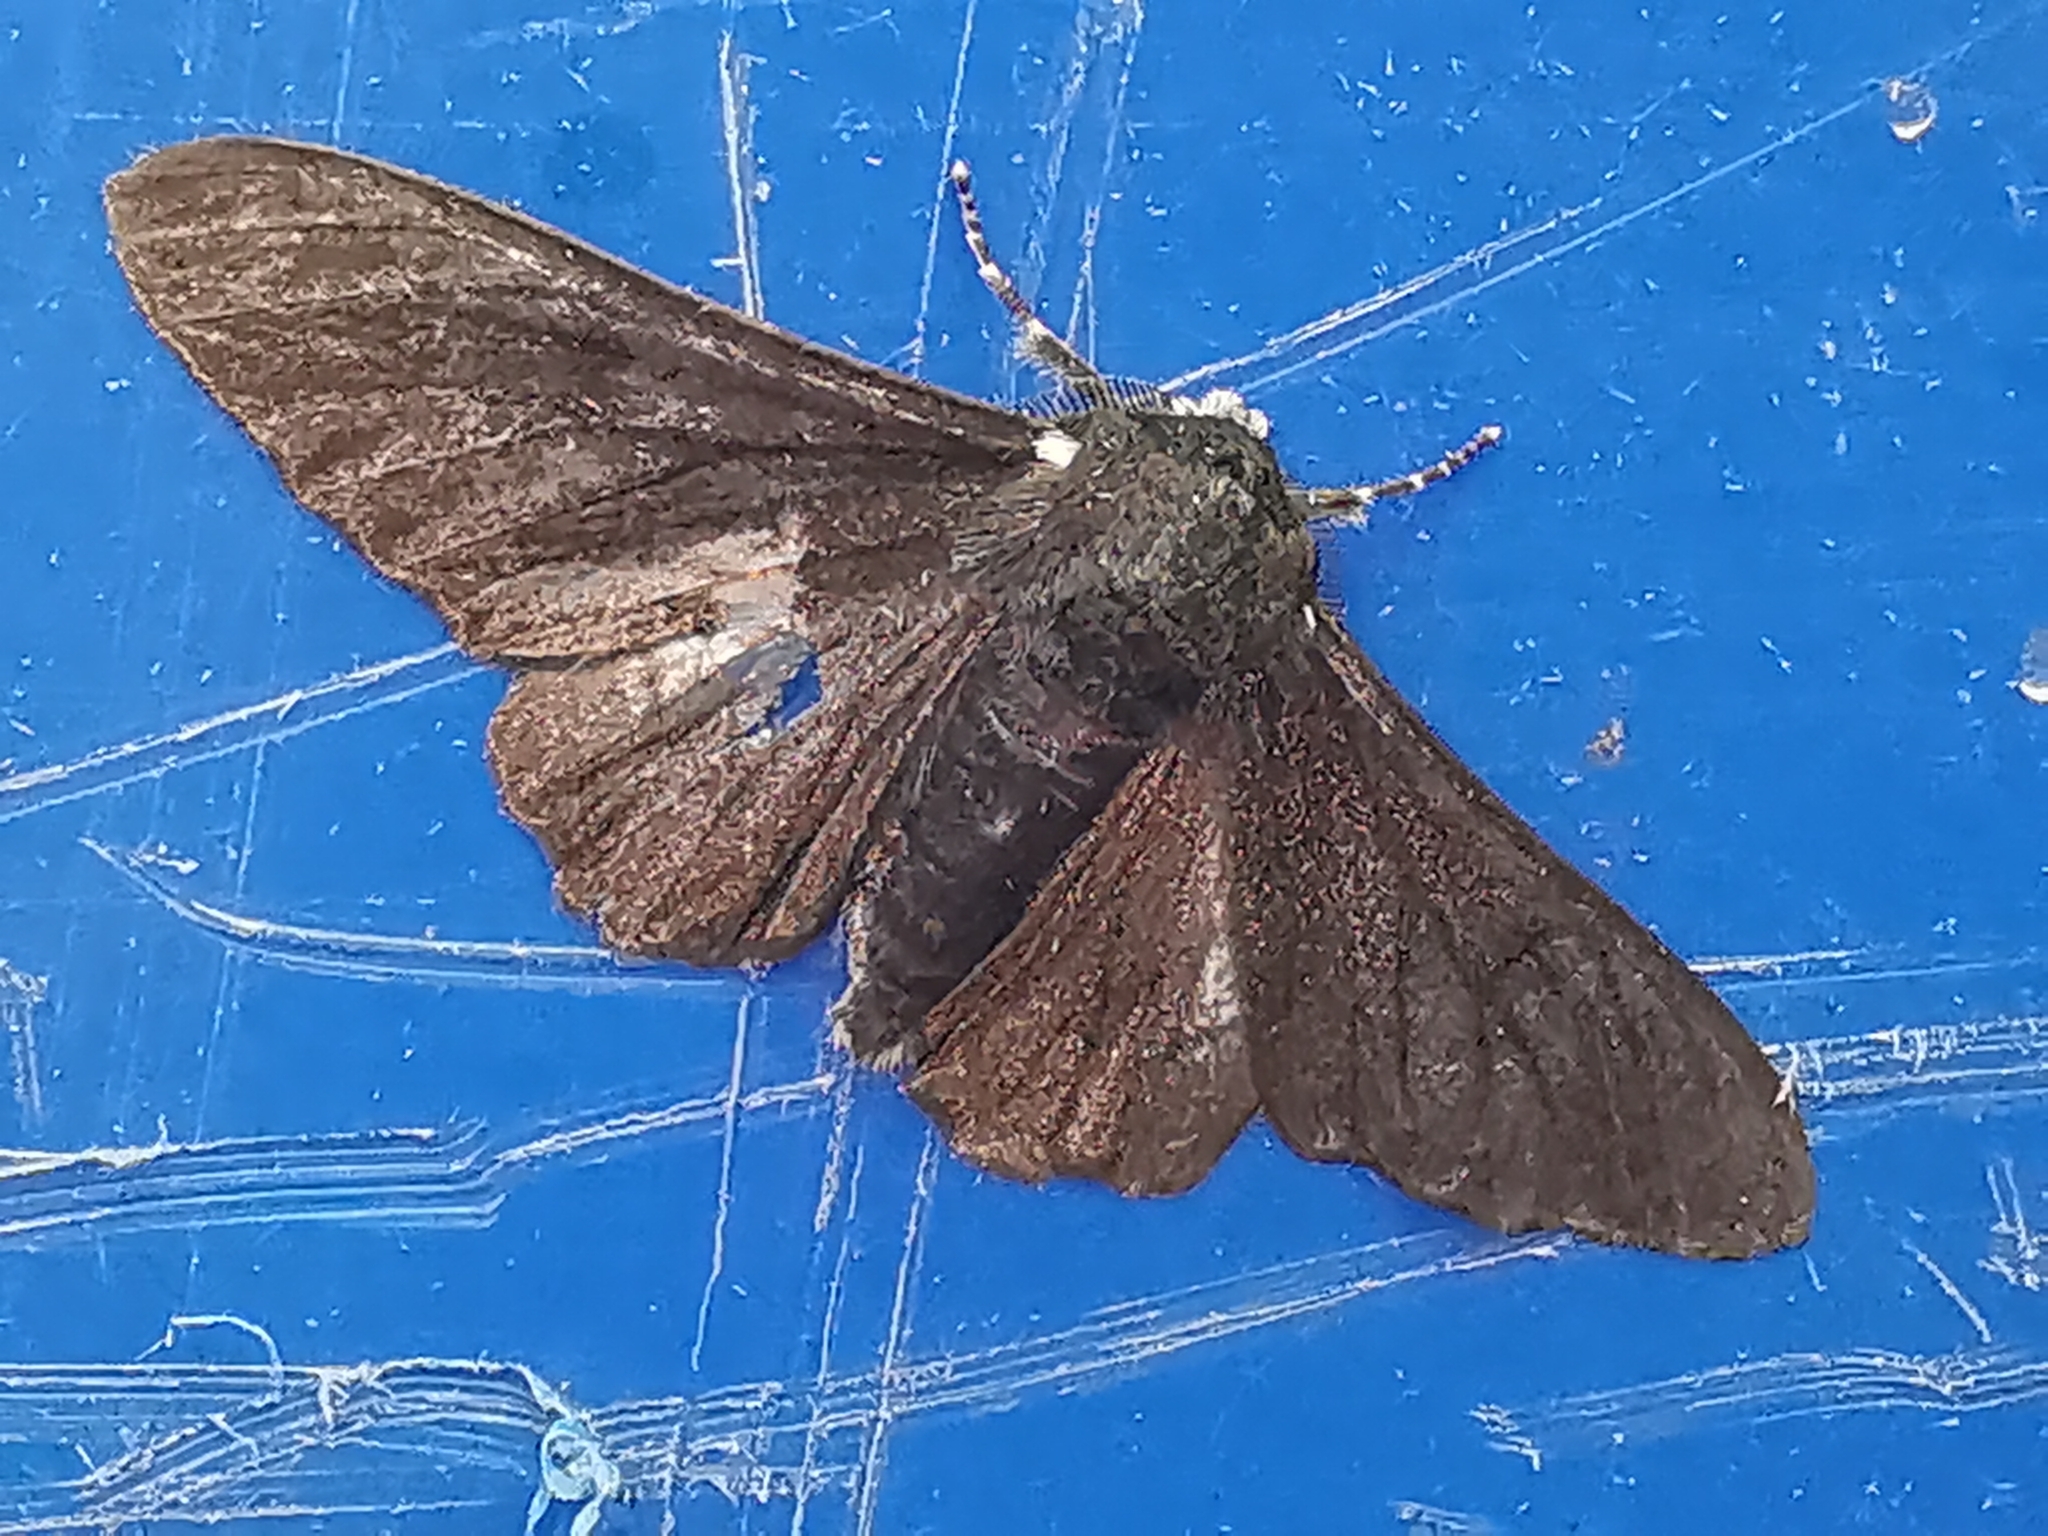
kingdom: Animalia
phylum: Arthropoda
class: Insecta
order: Lepidoptera
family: Geometridae
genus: Biston
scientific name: Biston betularia
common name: Peppered moth
